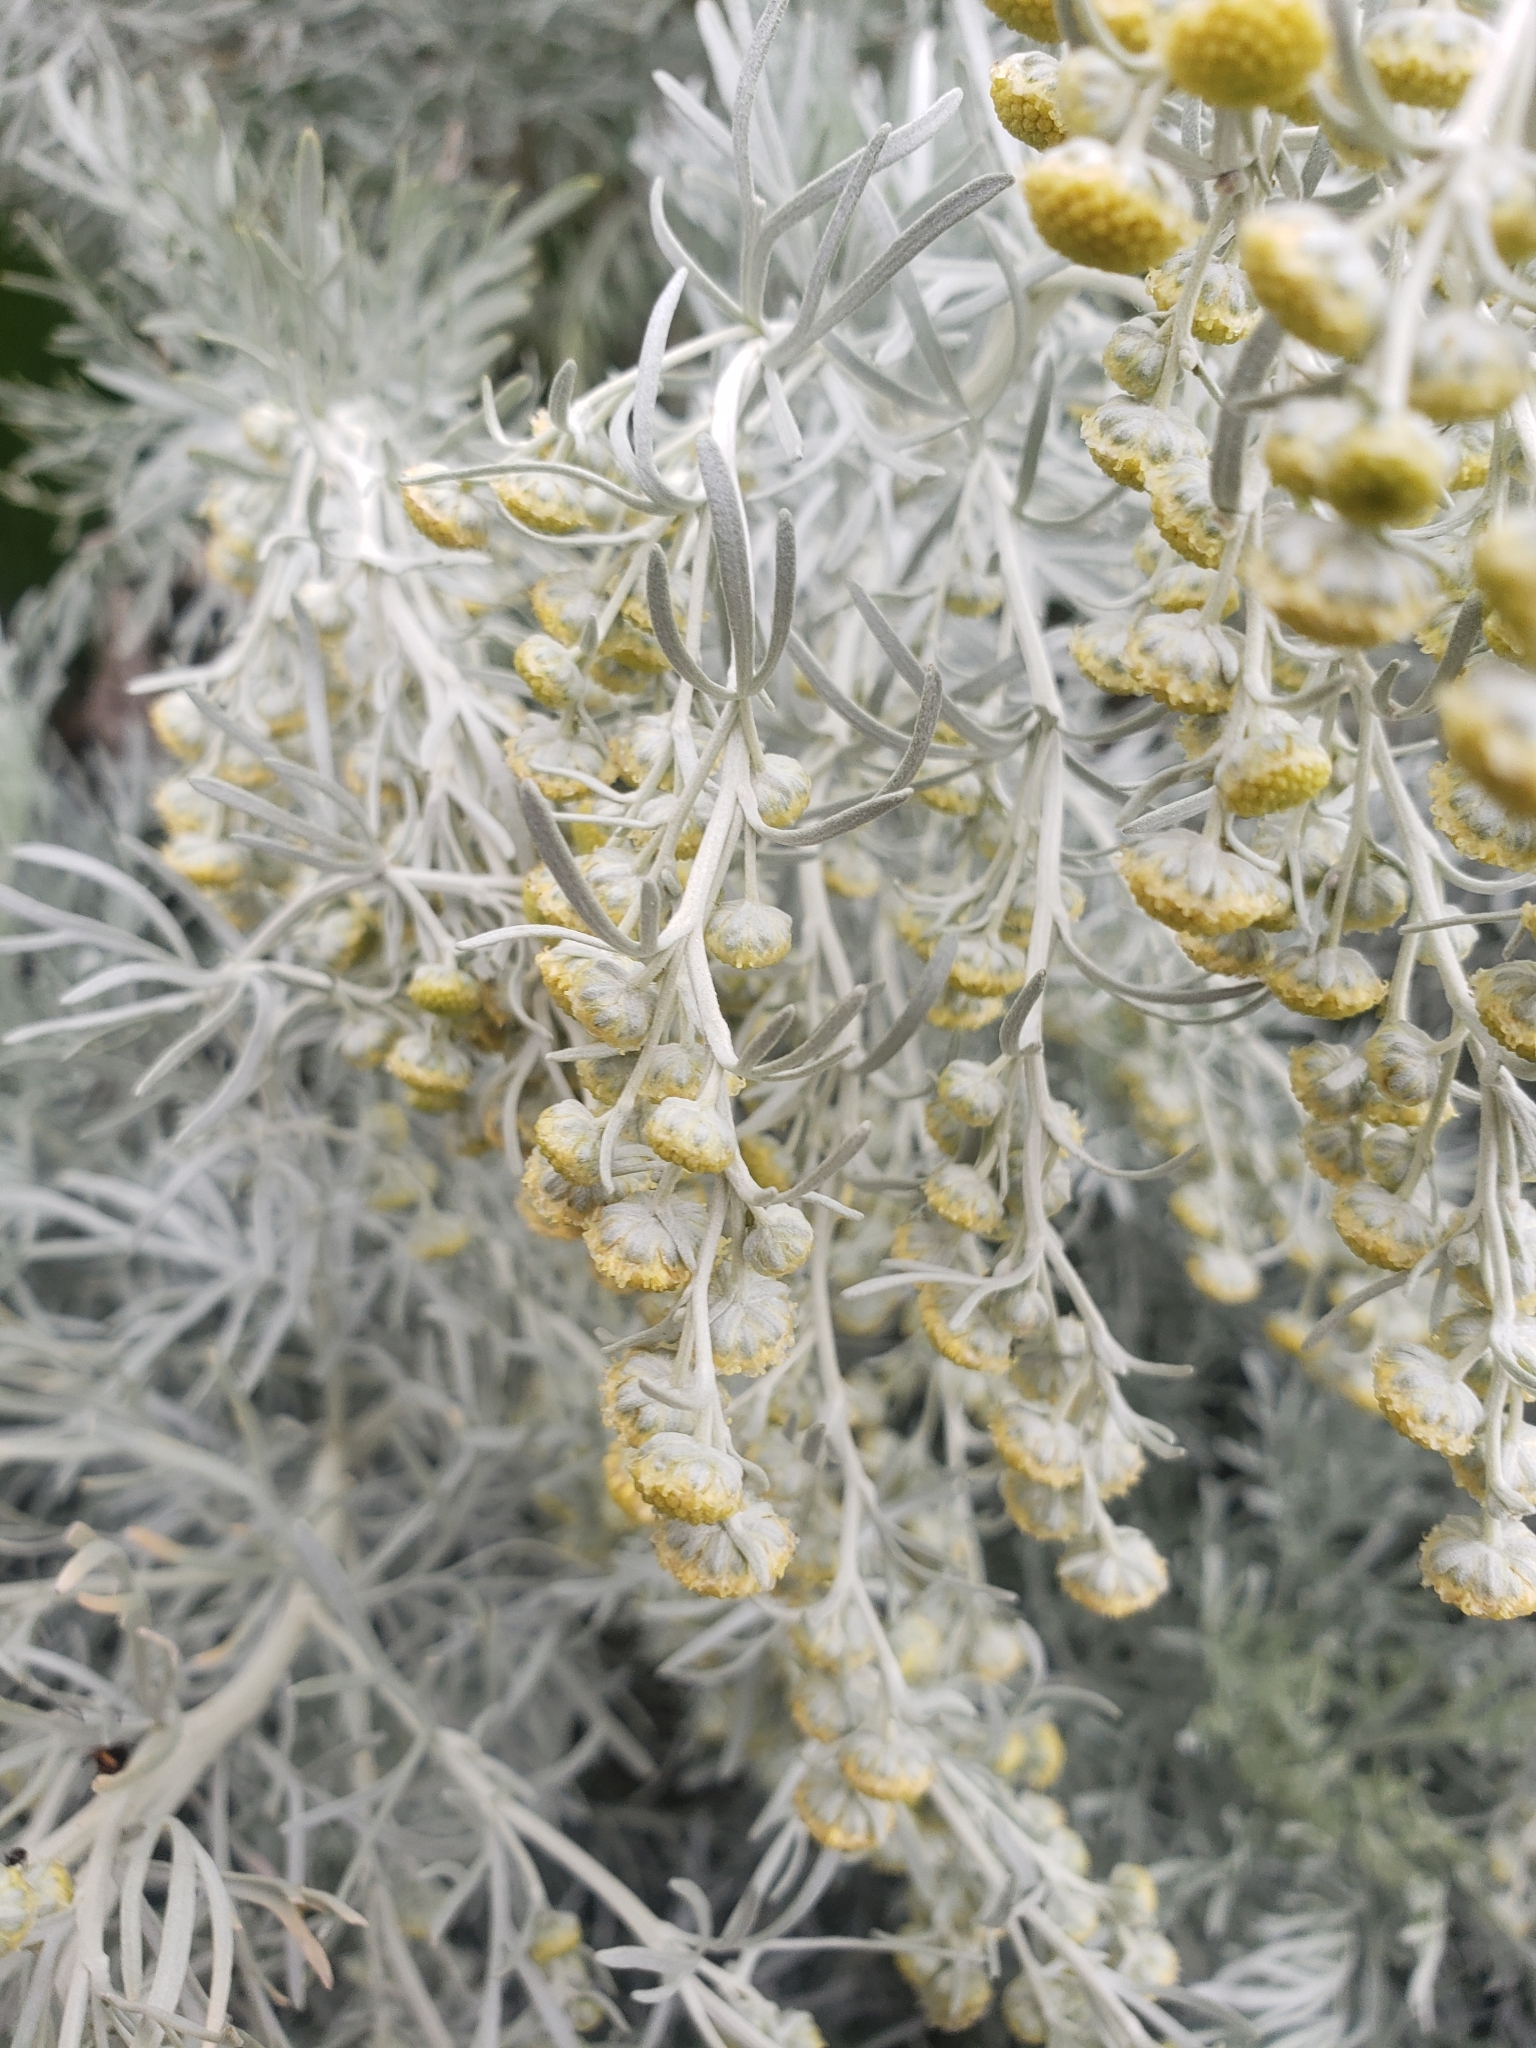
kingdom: Plantae
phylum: Tracheophyta
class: Magnoliopsida
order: Asterales
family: Asteraceae
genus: Artemisia
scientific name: Artemisia arborescens
